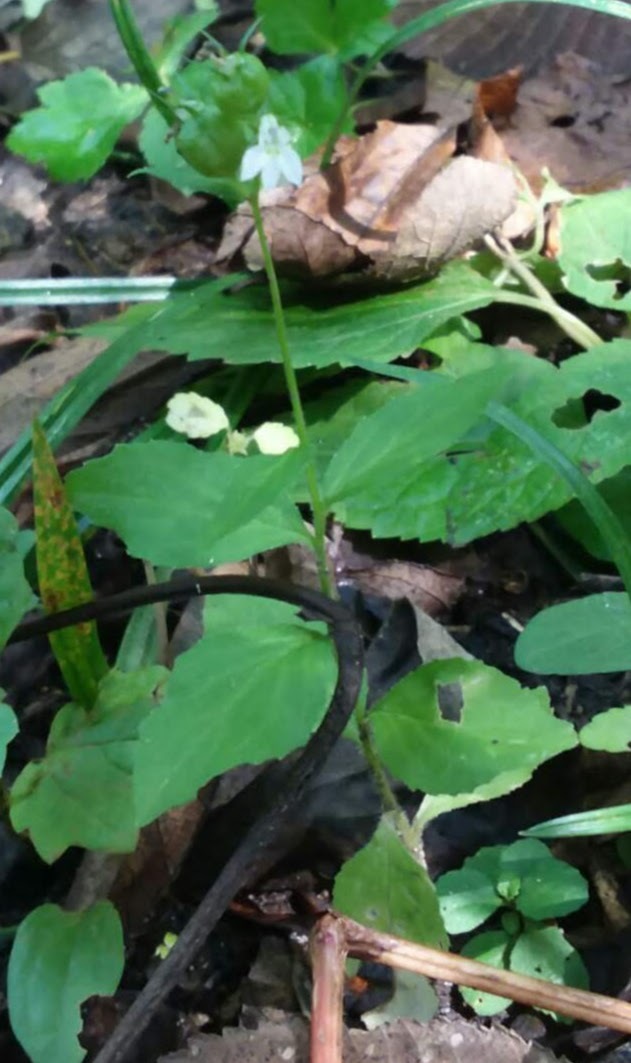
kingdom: Plantae
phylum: Tracheophyta
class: Magnoliopsida
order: Asterales
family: Campanulaceae
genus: Lobelia
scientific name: Lobelia inflata
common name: Indian tobacco
